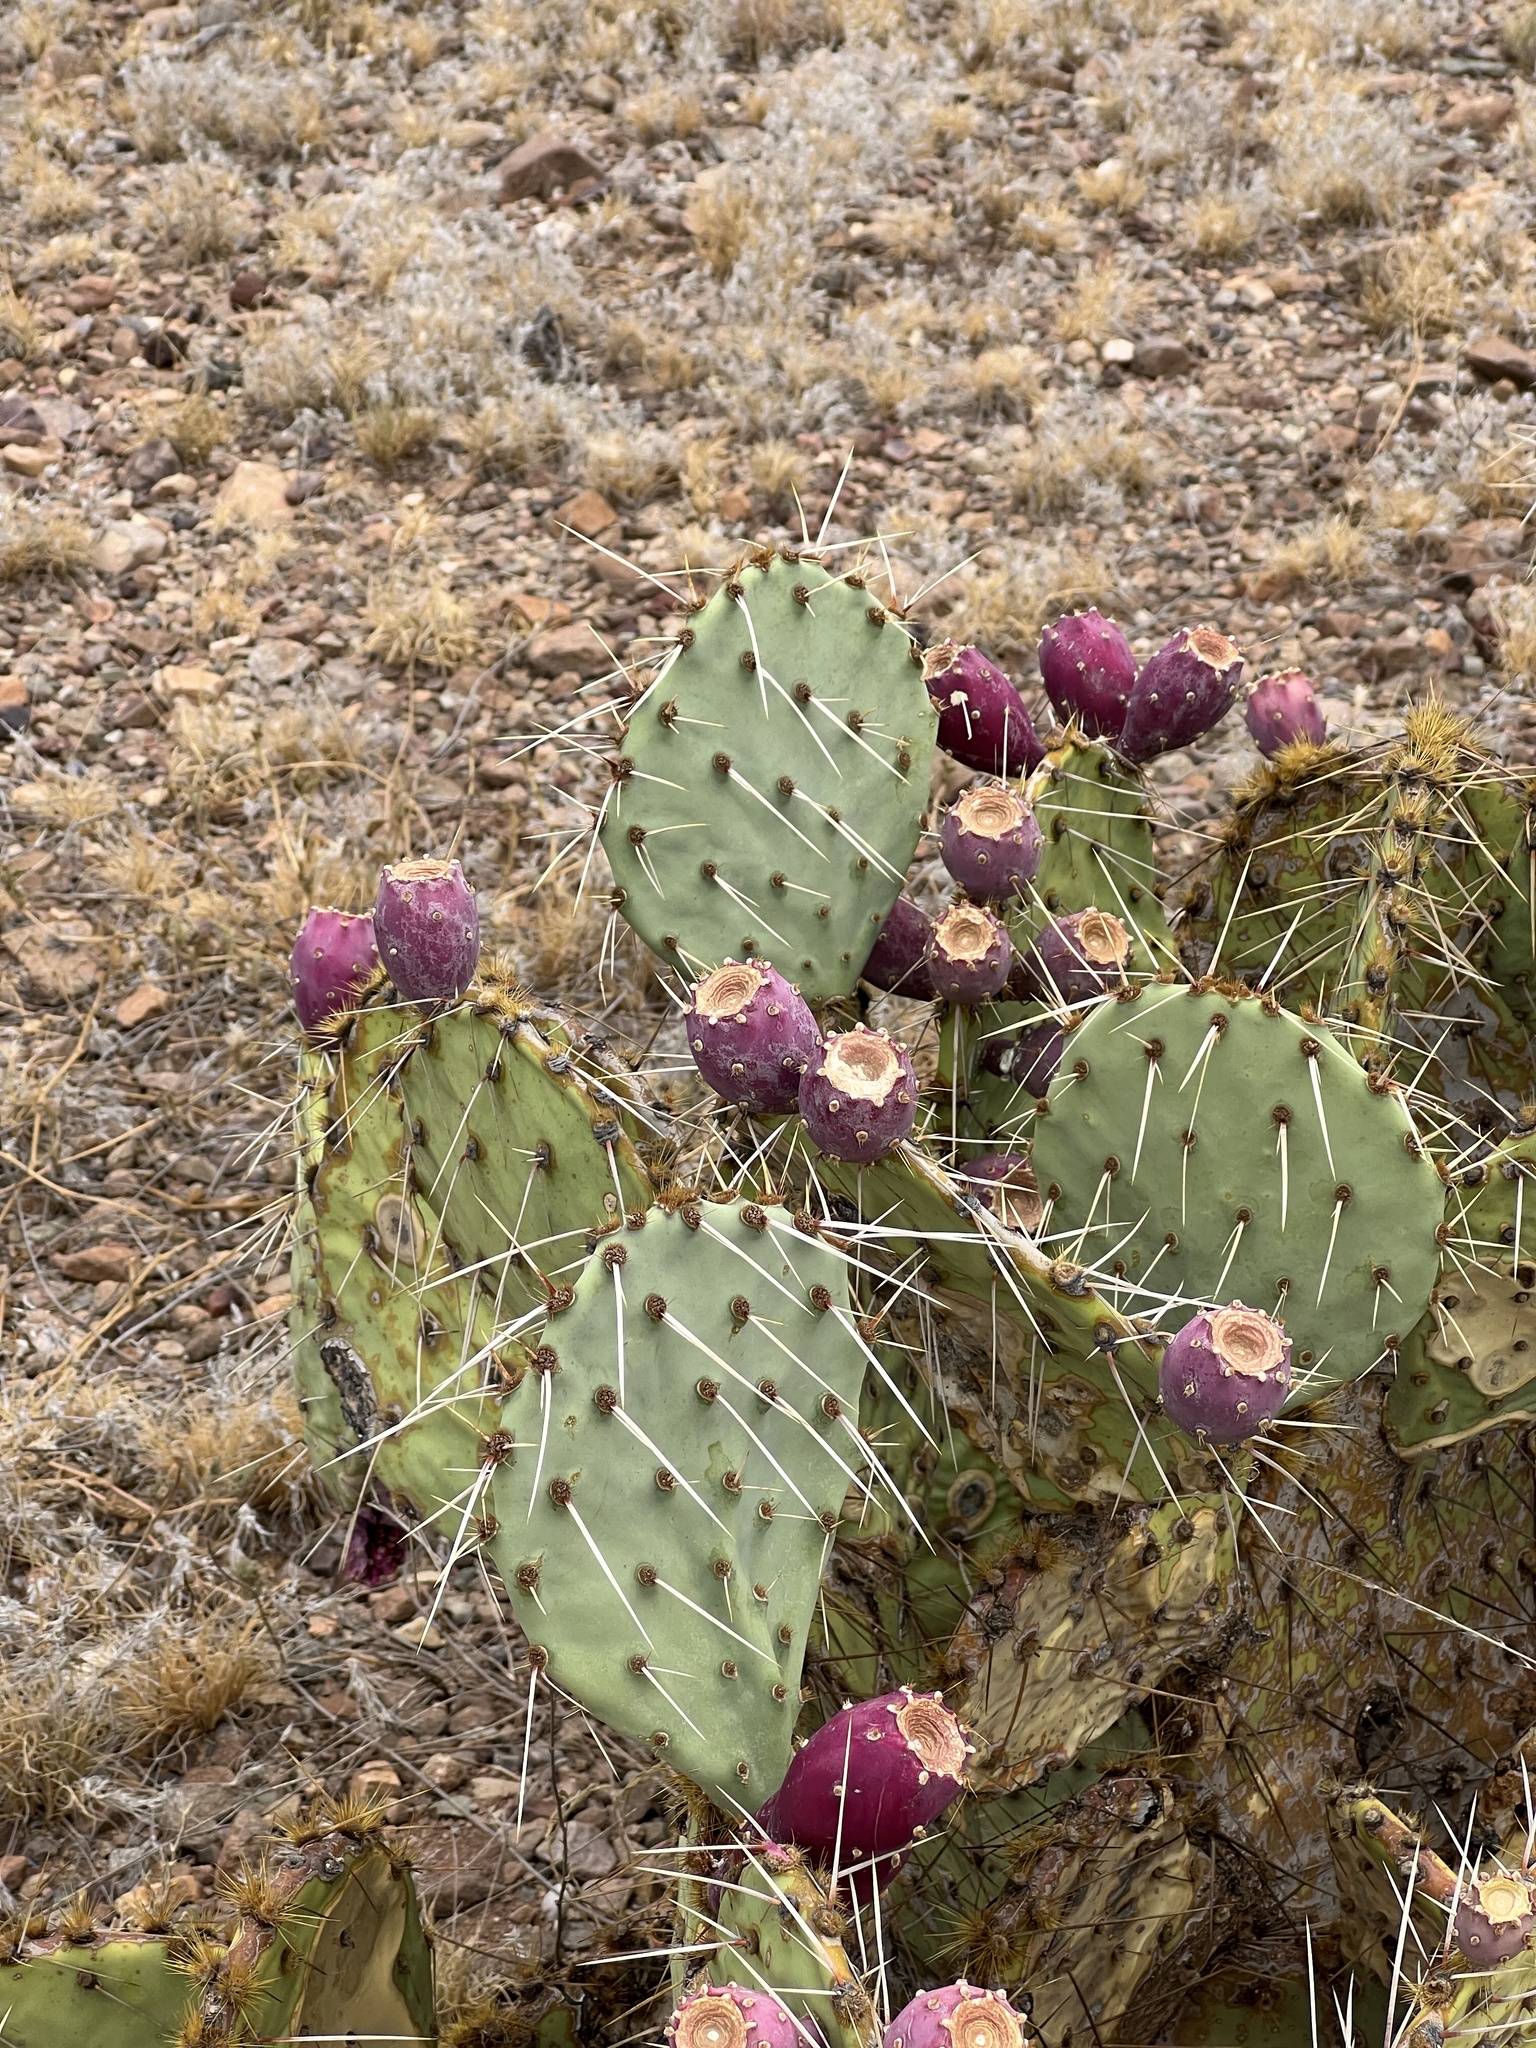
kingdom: Plantae
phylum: Tracheophyta
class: Magnoliopsida
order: Caryophyllales
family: Cactaceae
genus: Opuntia
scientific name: Opuntia phaeacantha
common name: New mexico prickly-pear
